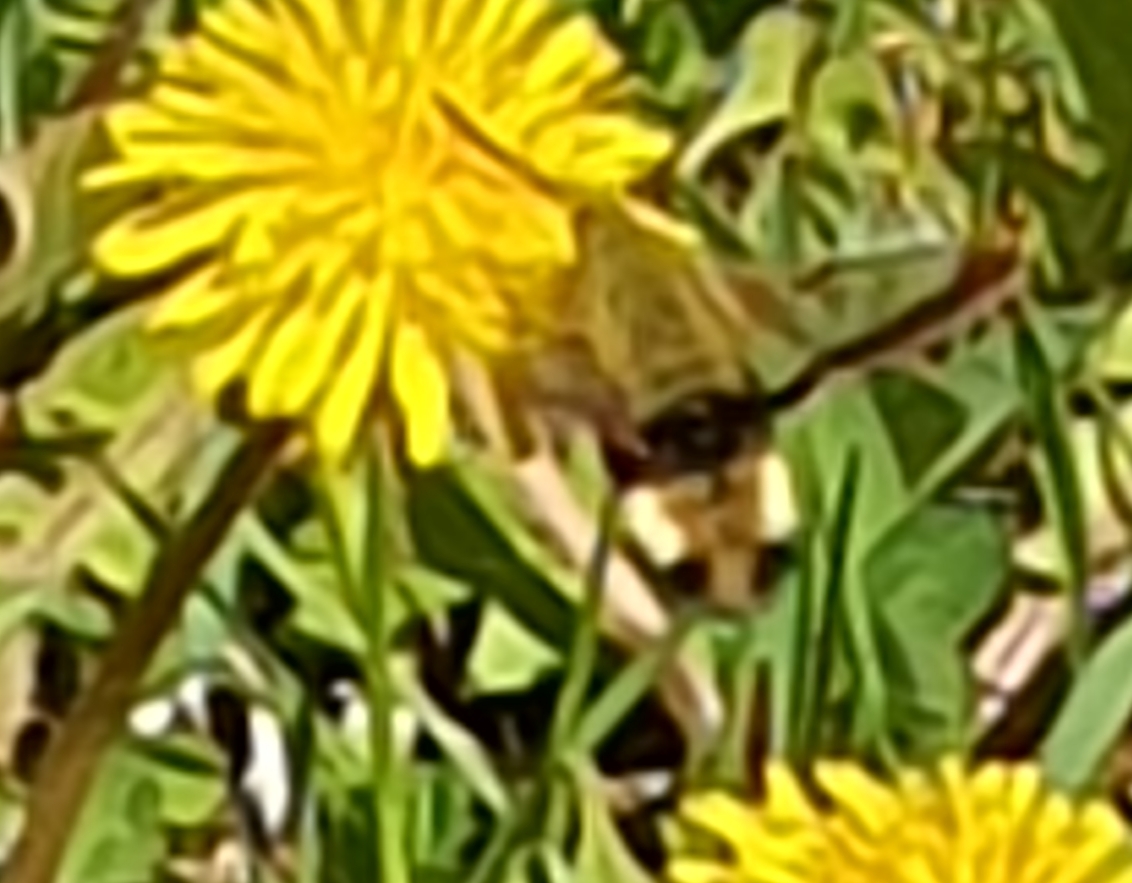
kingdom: Animalia
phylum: Arthropoda
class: Insecta
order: Lepidoptera
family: Sphingidae
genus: Hemaris
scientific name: Hemaris fuciformis
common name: Broad-bordered bee hawk-moth
